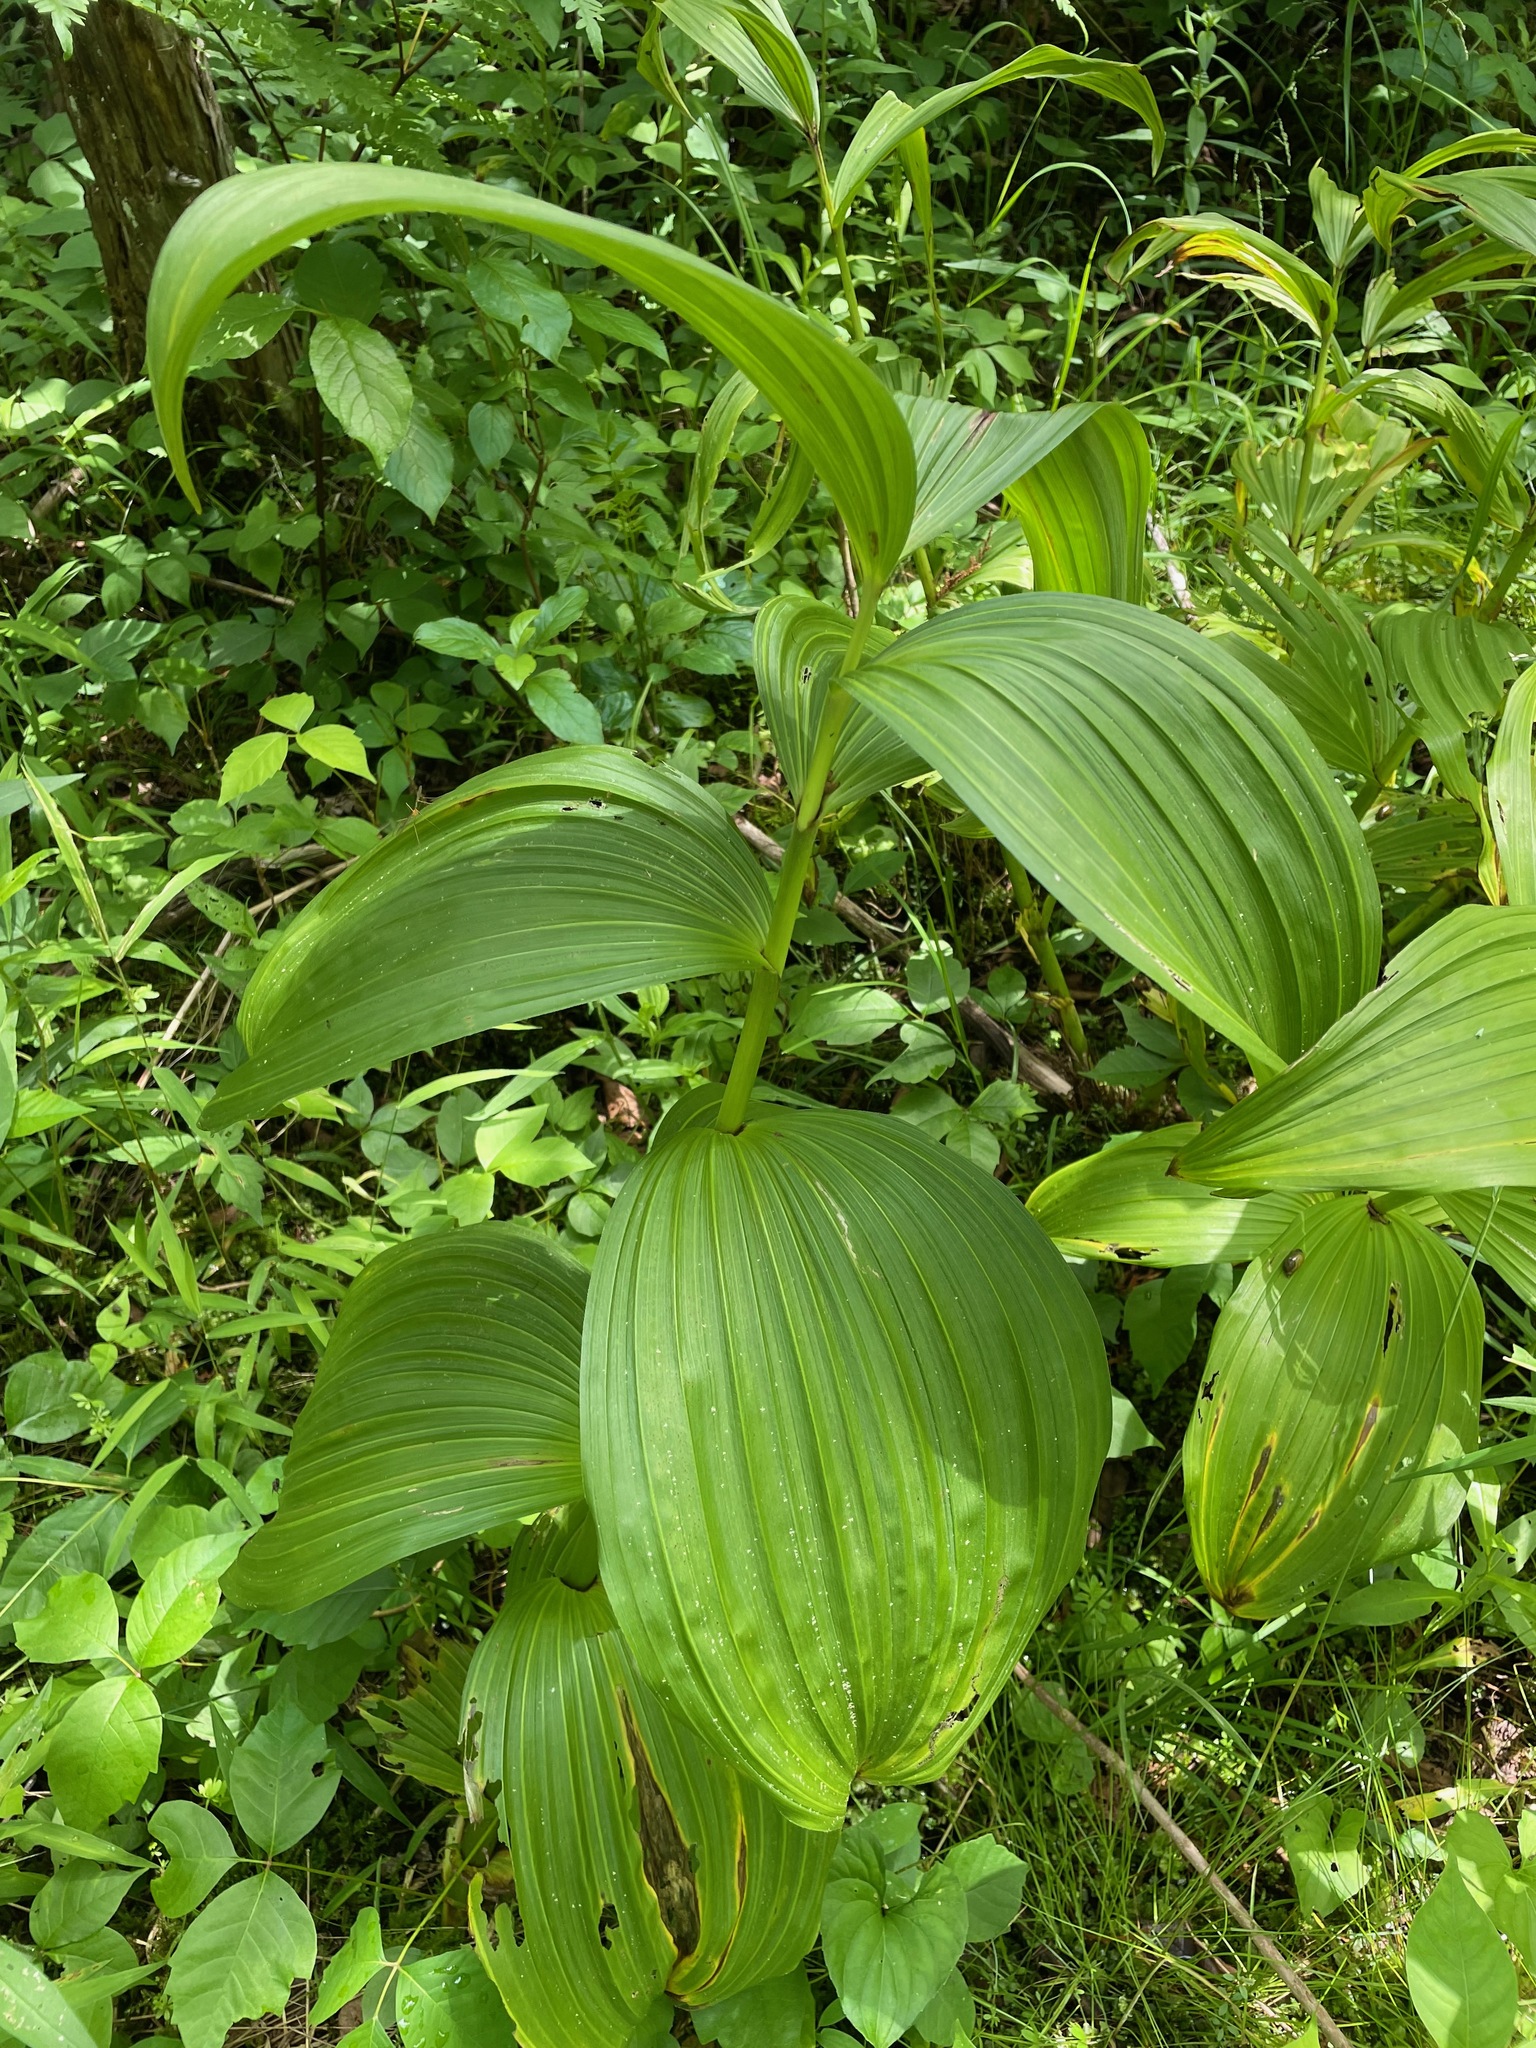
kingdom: Plantae
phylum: Tracheophyta
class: Liliopsida
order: Liliales
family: Melanthiaceae
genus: Veratrum
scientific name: Veratrum viride
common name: American false hellebore
